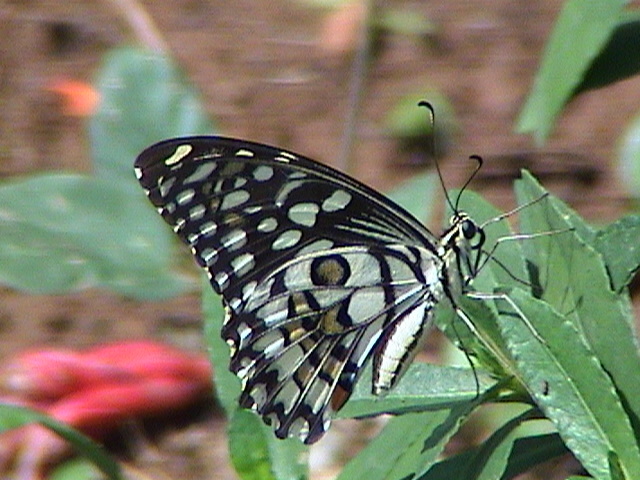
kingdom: Animalia
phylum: Arthropoda
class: Insecta
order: Lepidoptera
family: Papilionidae
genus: Papilio
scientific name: Papilio demoleus
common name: Lime butterfly
